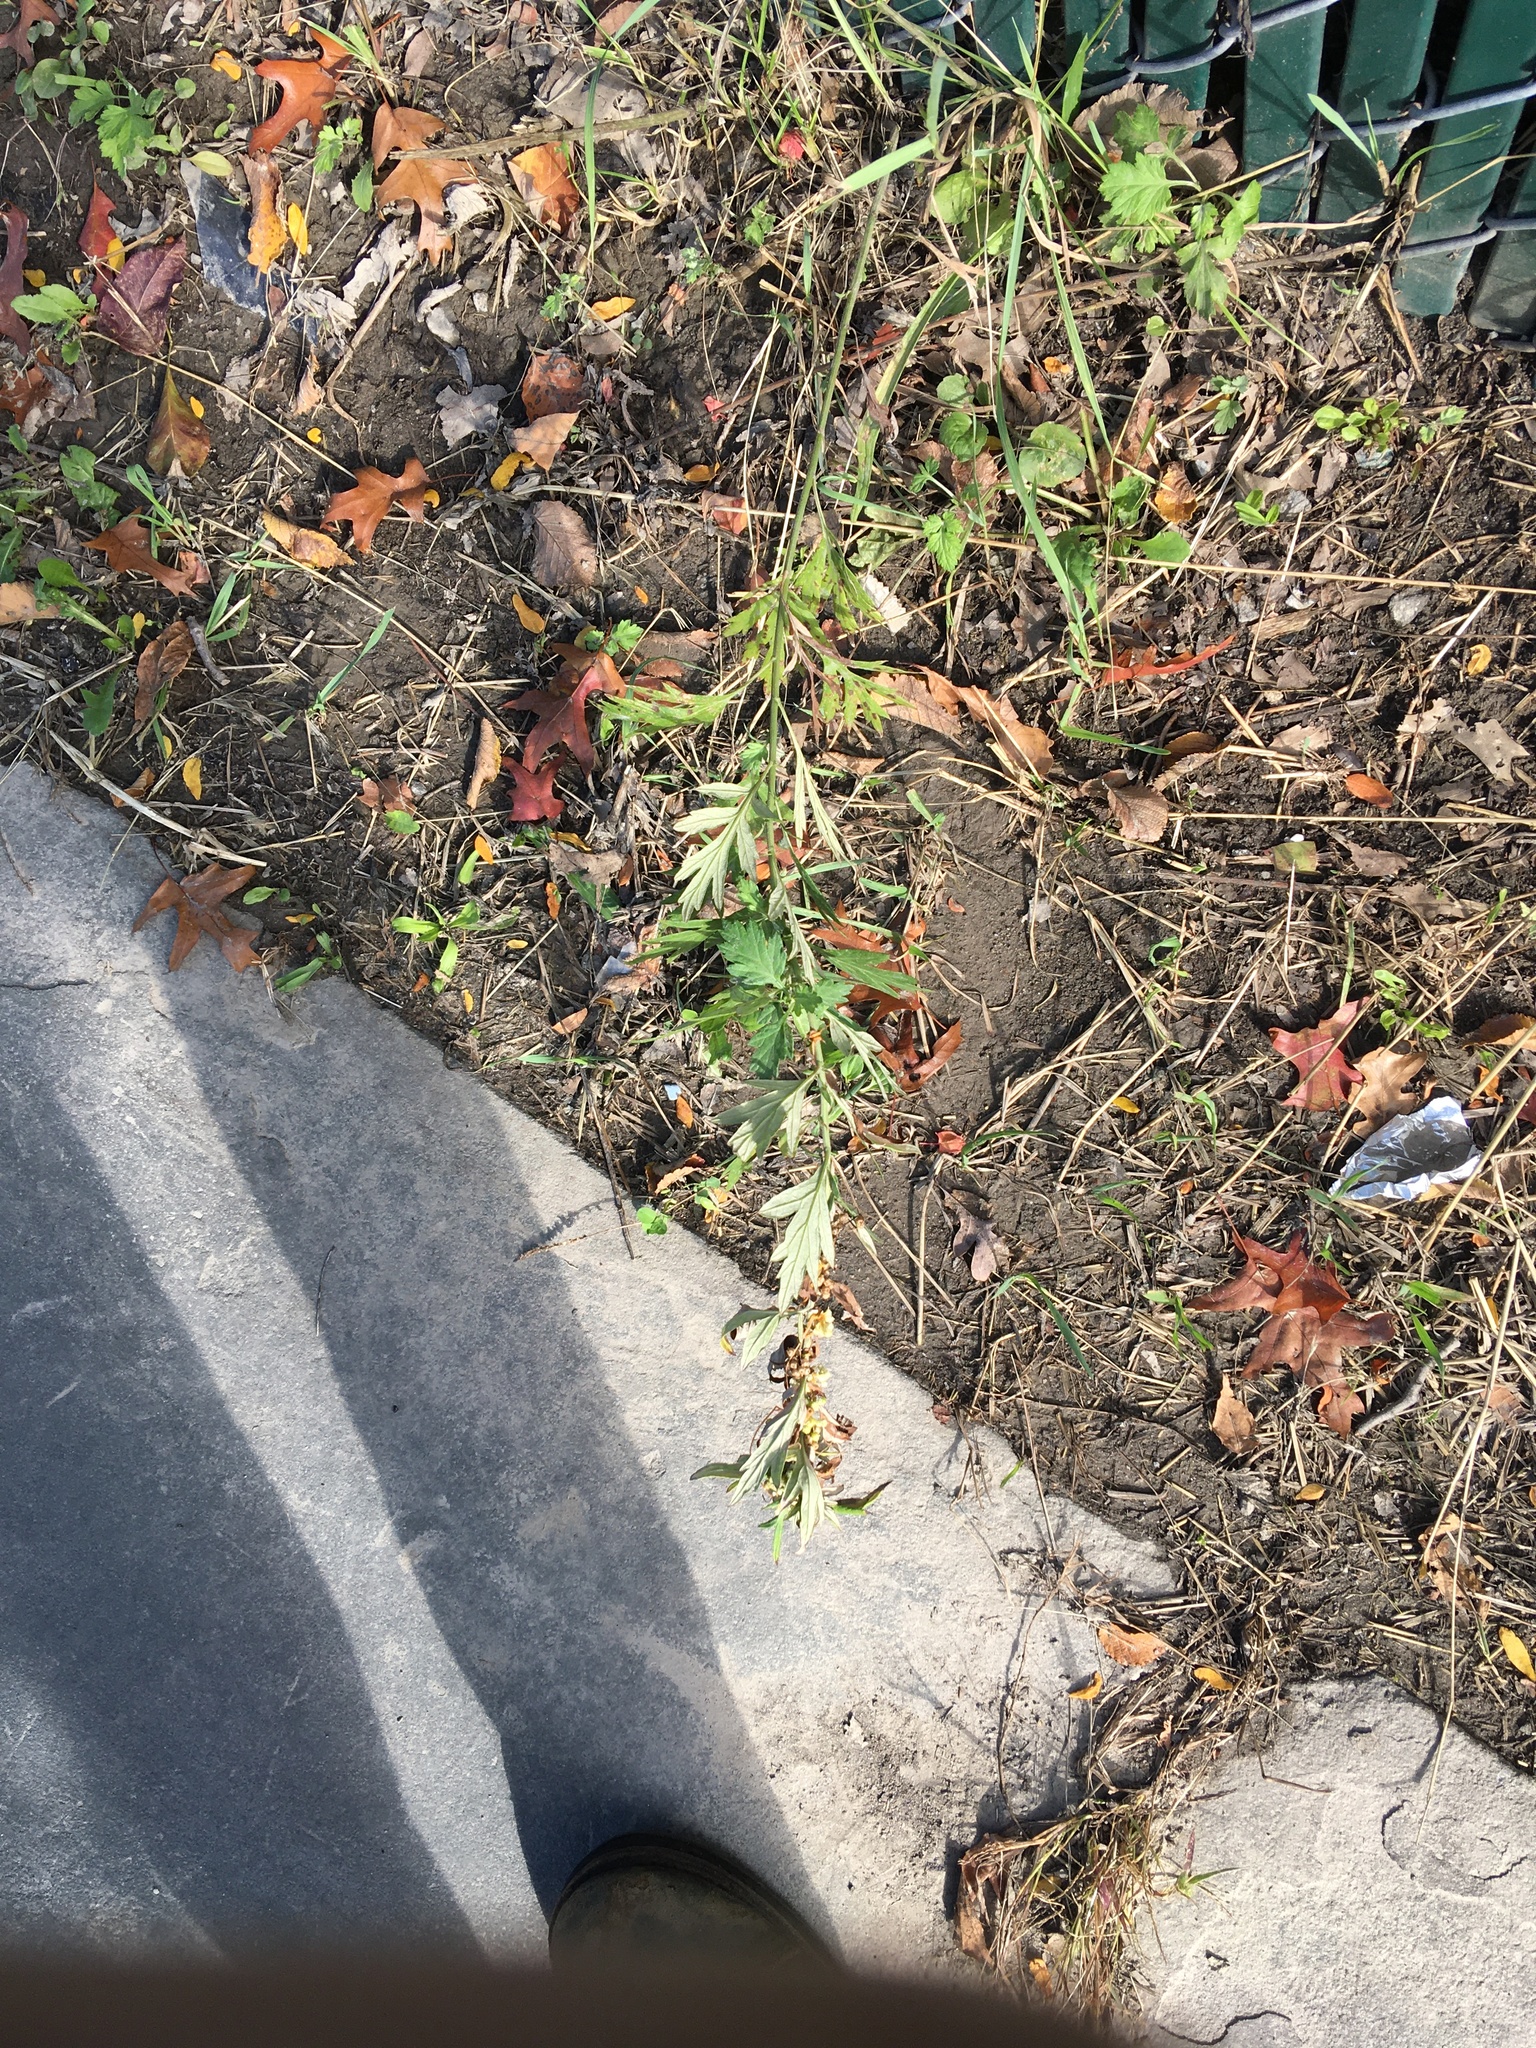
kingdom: Plantae
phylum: Tracheophyta
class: Magnoliopsida
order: Asterales
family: Asteraceae
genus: Artemisia
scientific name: Artemisia vulgaris
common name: Mugwort
